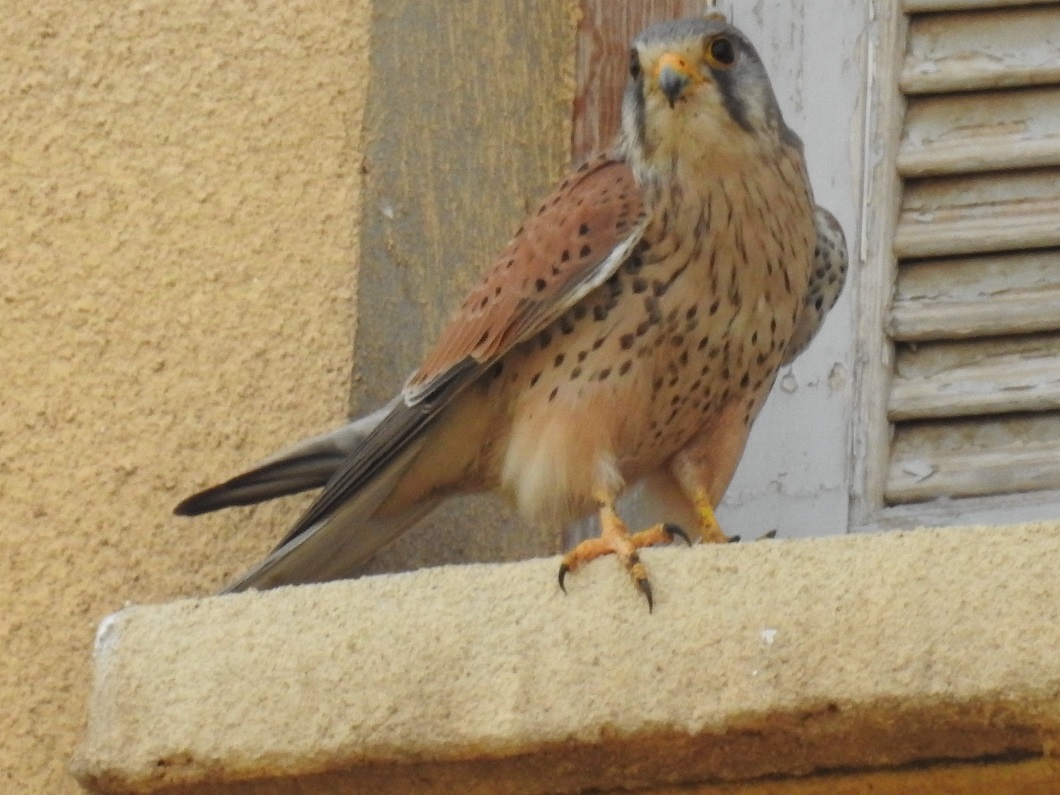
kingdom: Animalia
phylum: Chordata
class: Aves
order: Falconiformes
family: Falconidae
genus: Falco
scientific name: Falco tinnunculus
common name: Common kestrel
